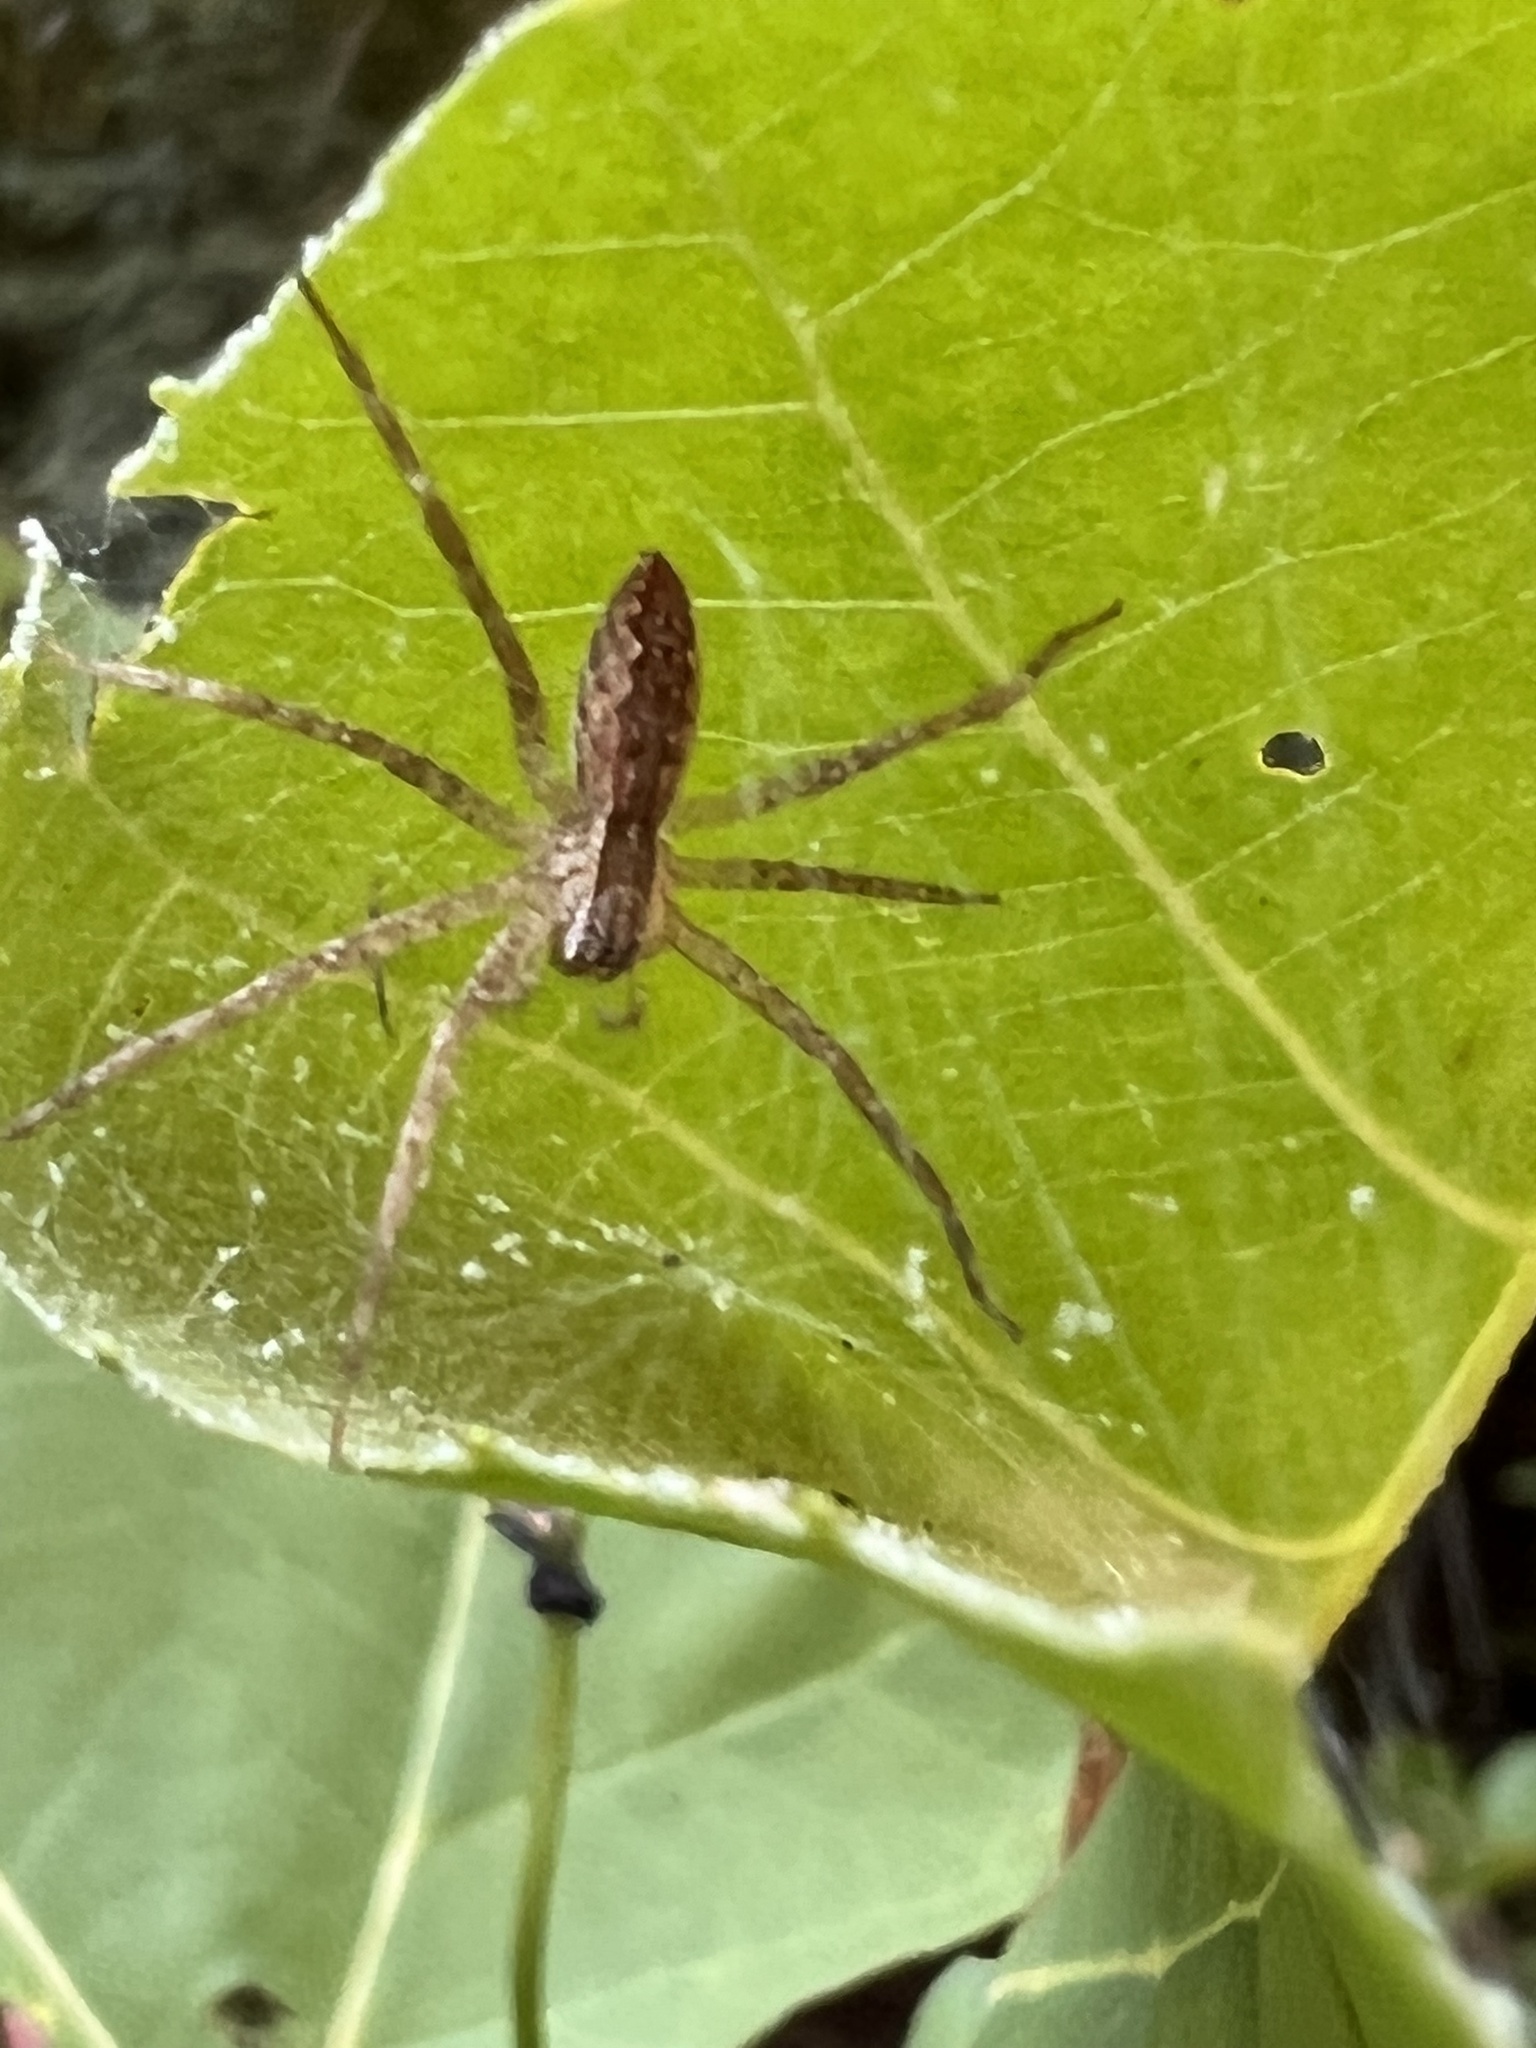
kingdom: Animalia
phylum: Arthropoda
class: Arachnida
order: Araneae
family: Pisauridae
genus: Pisaurina
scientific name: Pisaurina mira
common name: American nursery web spider
